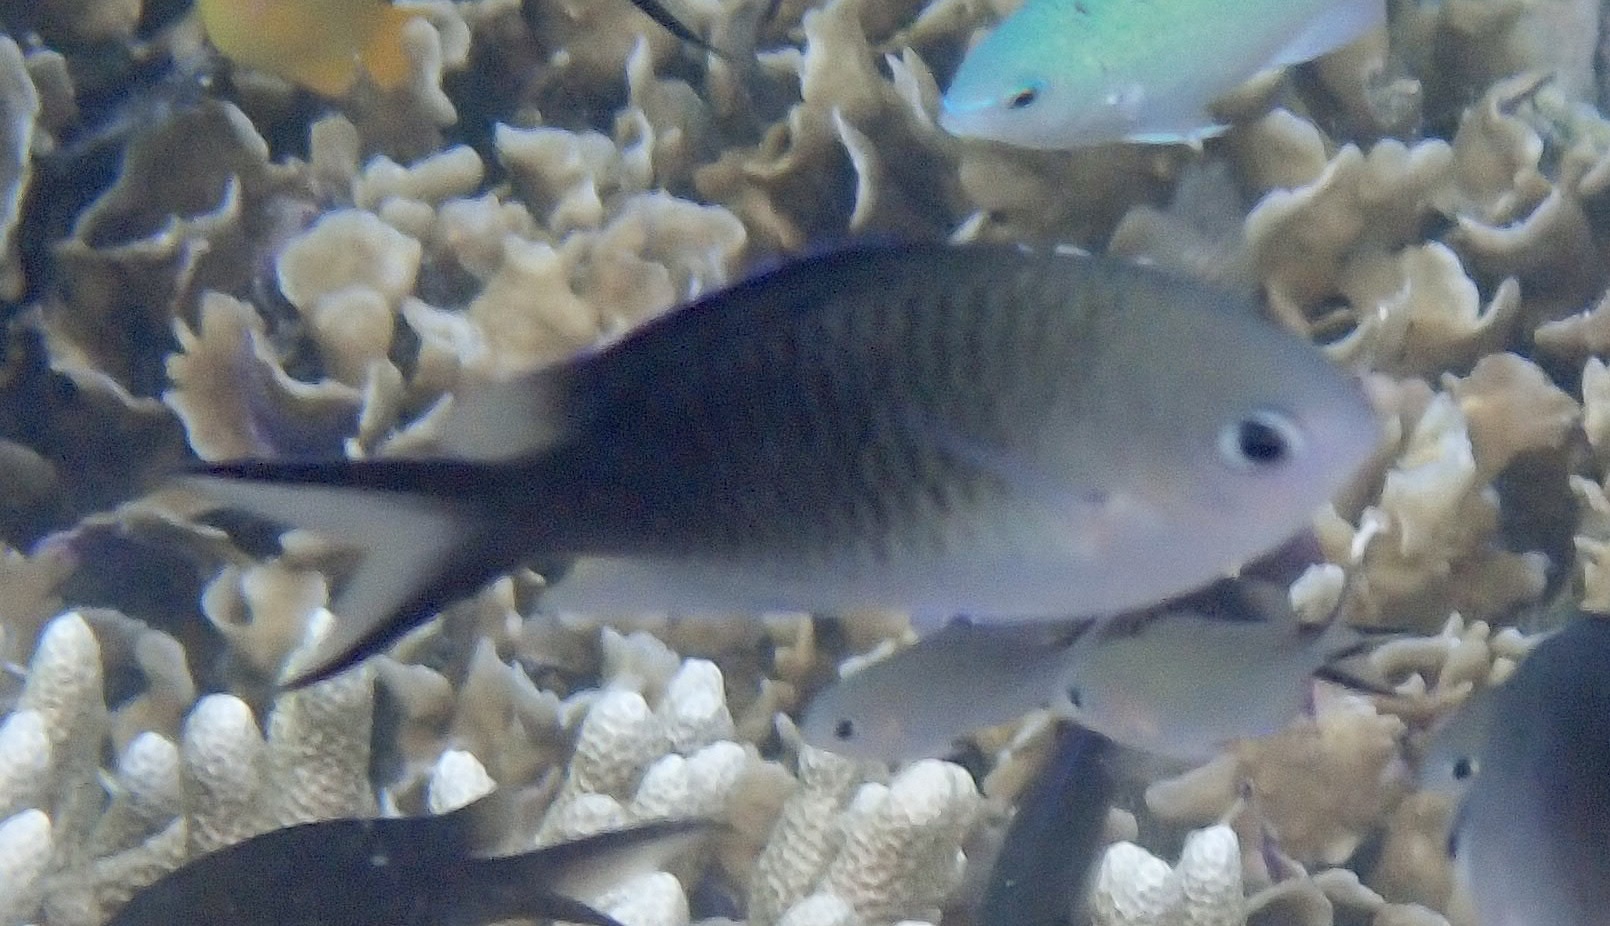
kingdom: Animalia
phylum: Chordata
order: Perciformes
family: Pomacentridae
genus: Chromis
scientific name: Chromis ternatensis
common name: Ternate chromis
